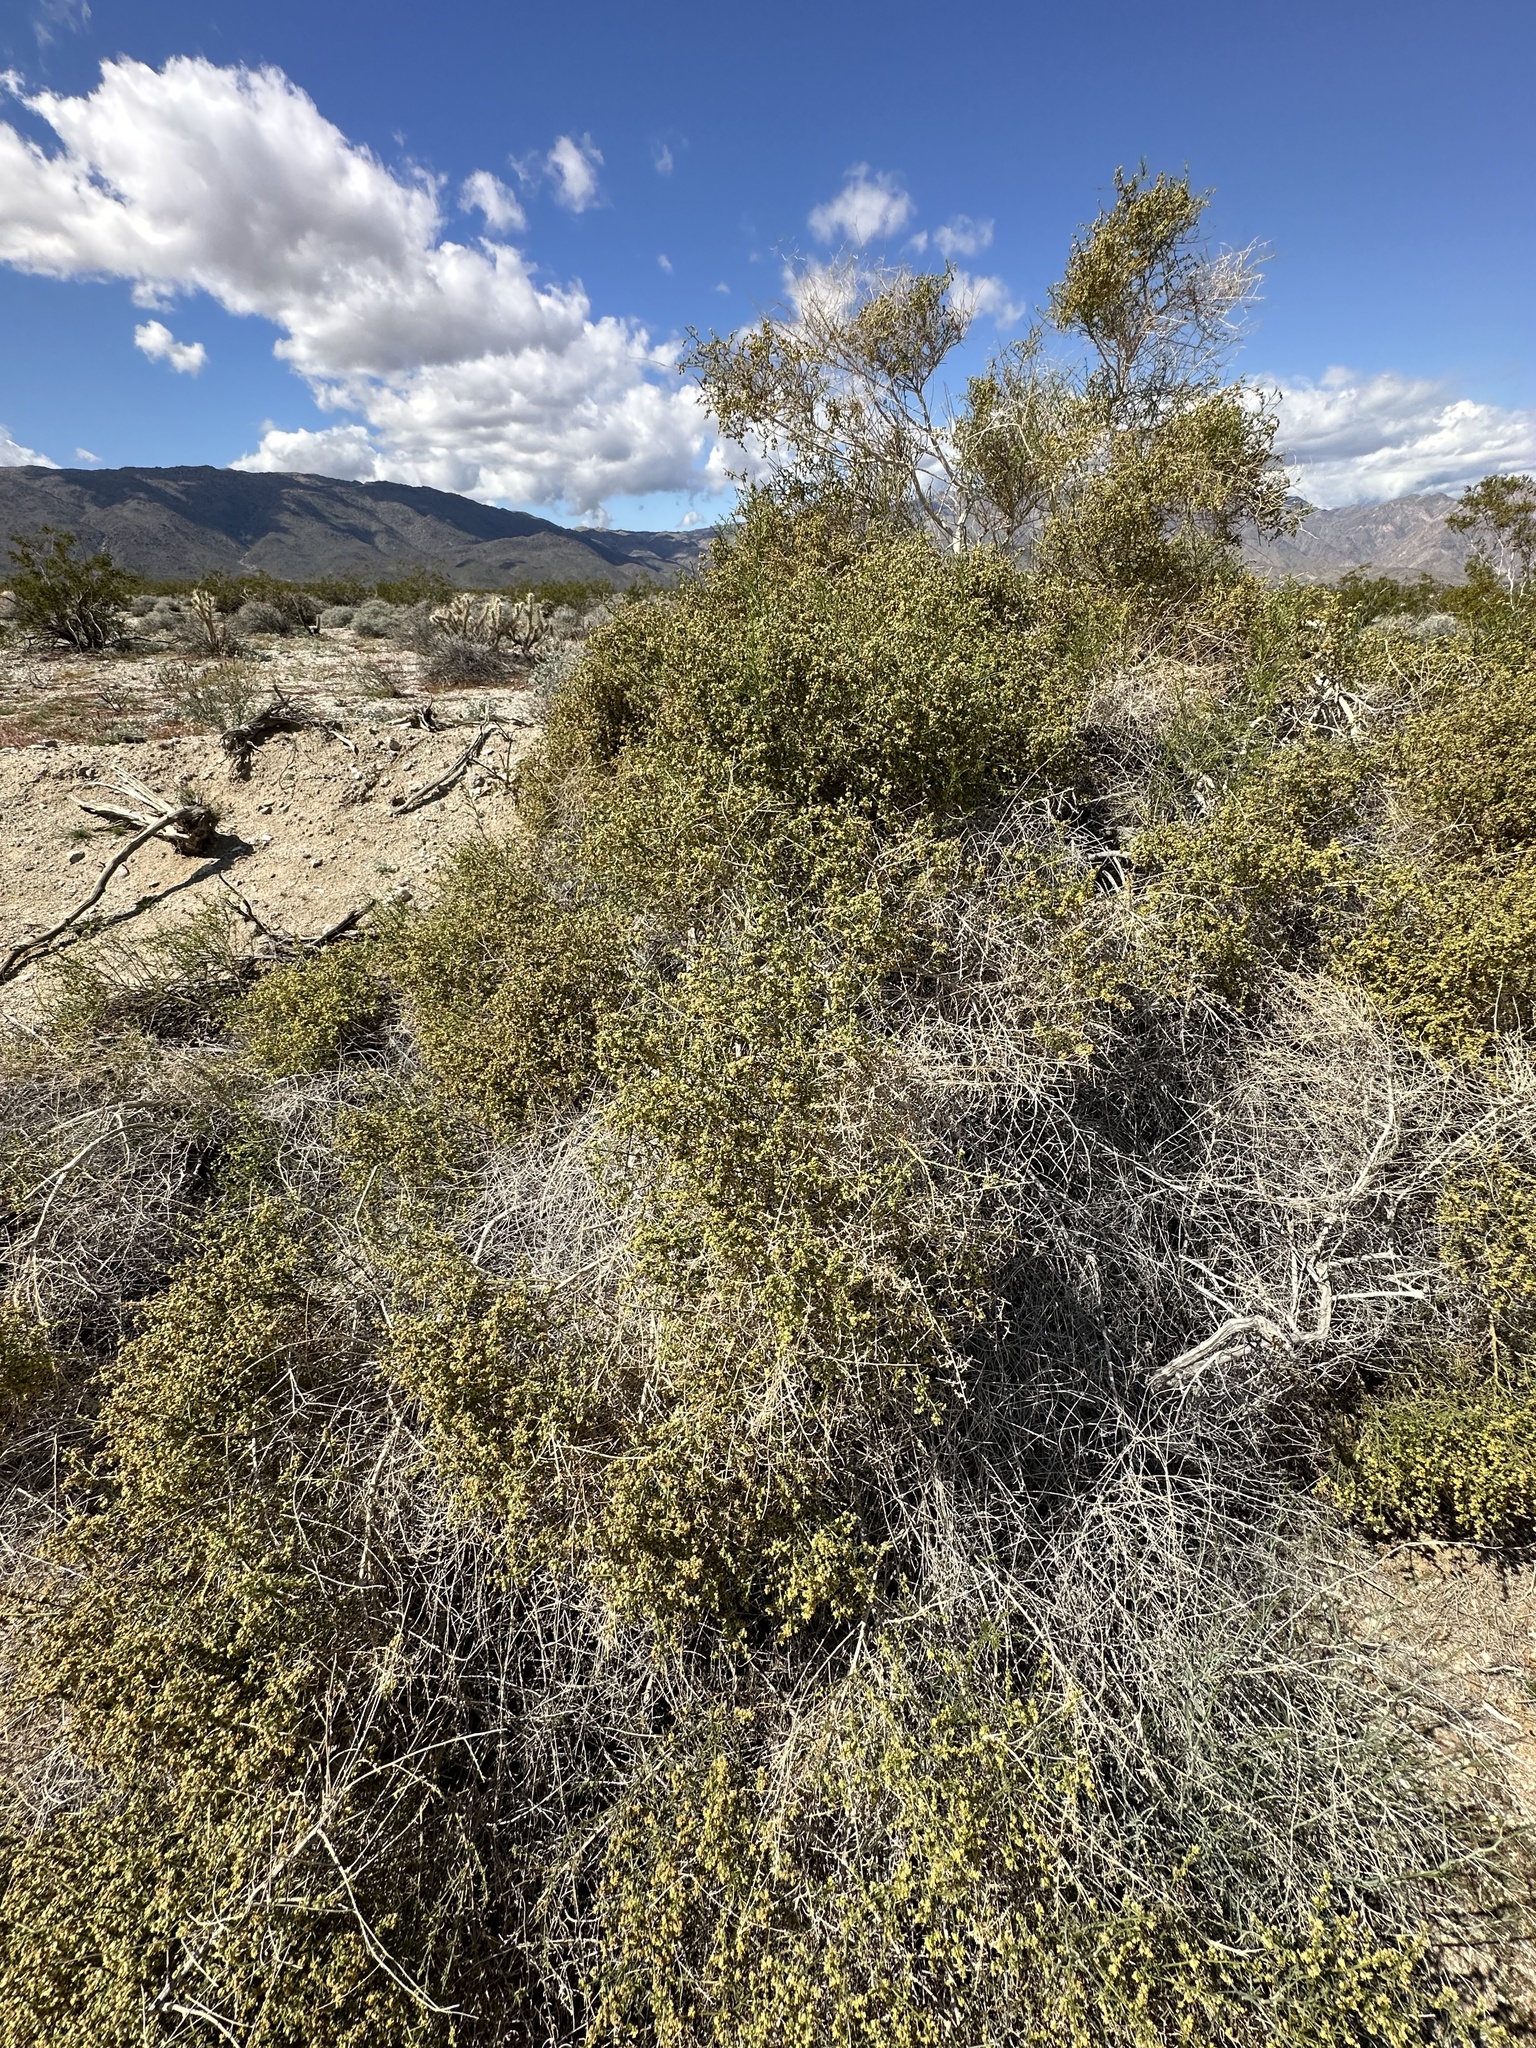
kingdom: Plantae
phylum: Tracheophyta
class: Magnoliopsida
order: Asterales
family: Asteraceae
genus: Ambrosia
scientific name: Ambrosia salsola
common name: Burrobrush
